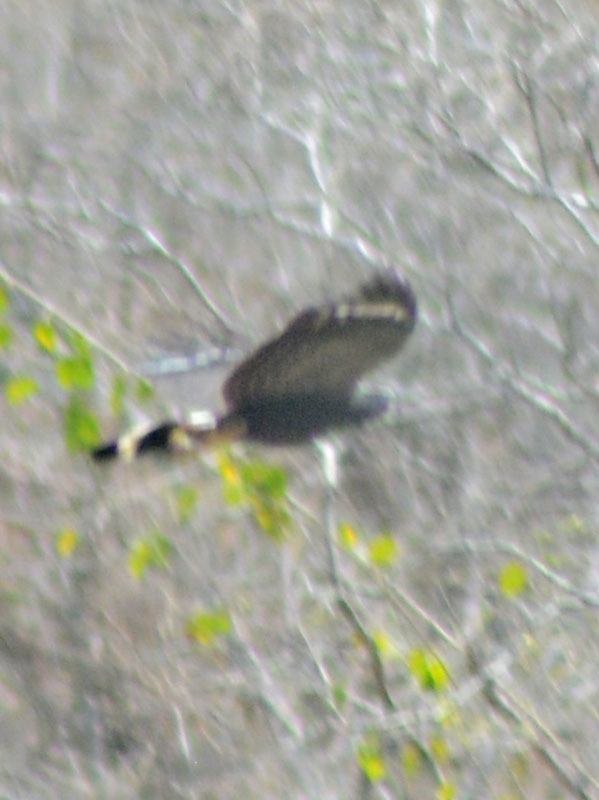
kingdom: Animalia
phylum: Chordata
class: Aves
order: Accipitriformes
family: Accipitridae
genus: Geranospiza
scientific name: Geranospiza caerulescens
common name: Crane hawk
